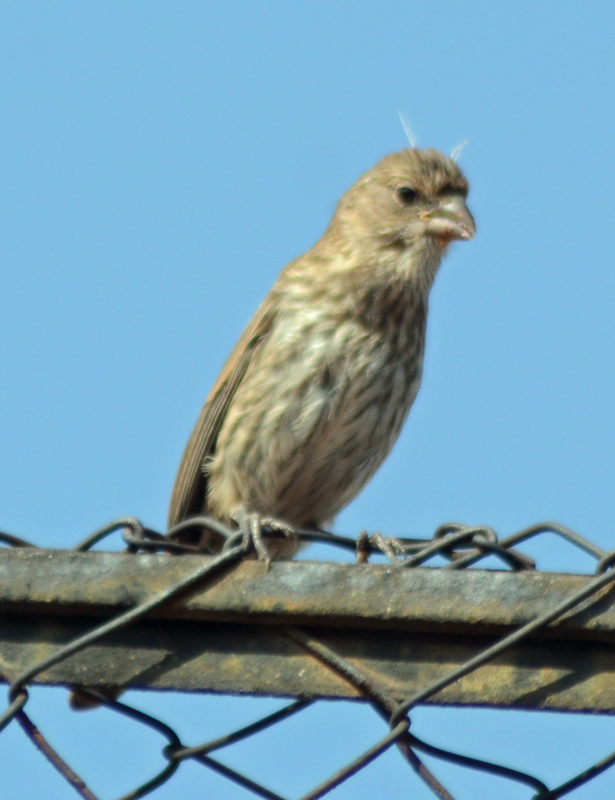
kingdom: Animalia
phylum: Chordata
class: Aves
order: Passeriformes
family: Fringillidae
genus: Haemorhous
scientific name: Haemorhous mexicanus
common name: House finch
